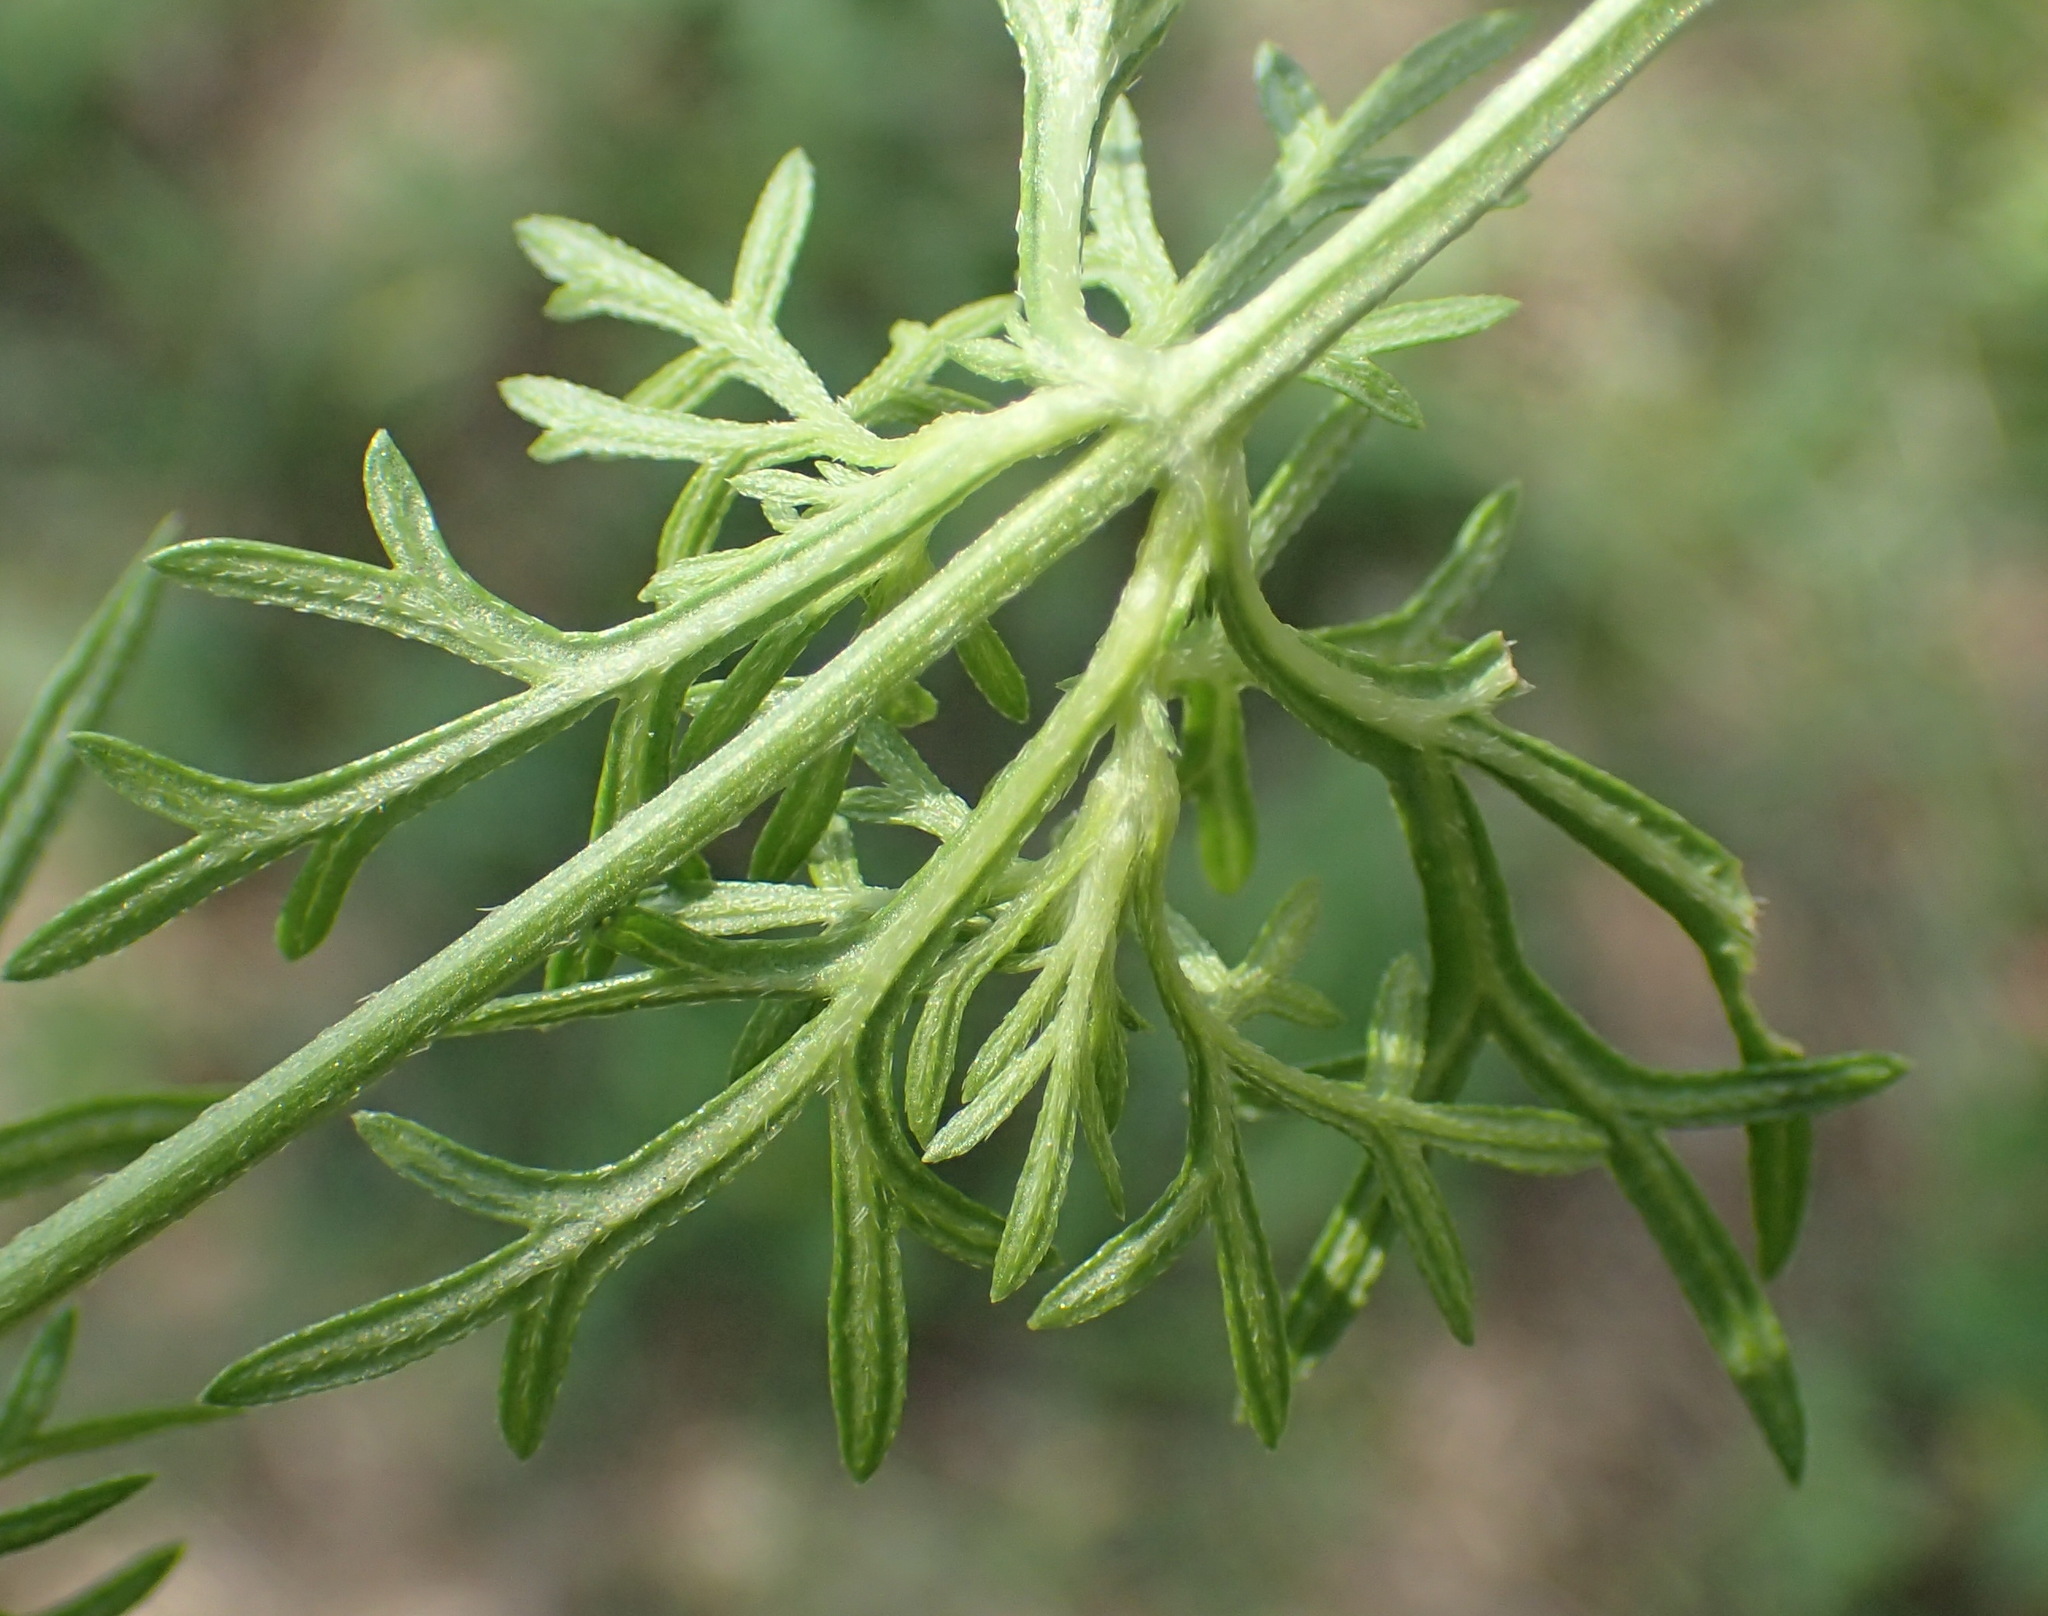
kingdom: Plantae
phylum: Tracheophyta
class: Magnoliopsida
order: Lamiales
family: Verbenaceae
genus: Verbena
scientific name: Verbena aristigera
